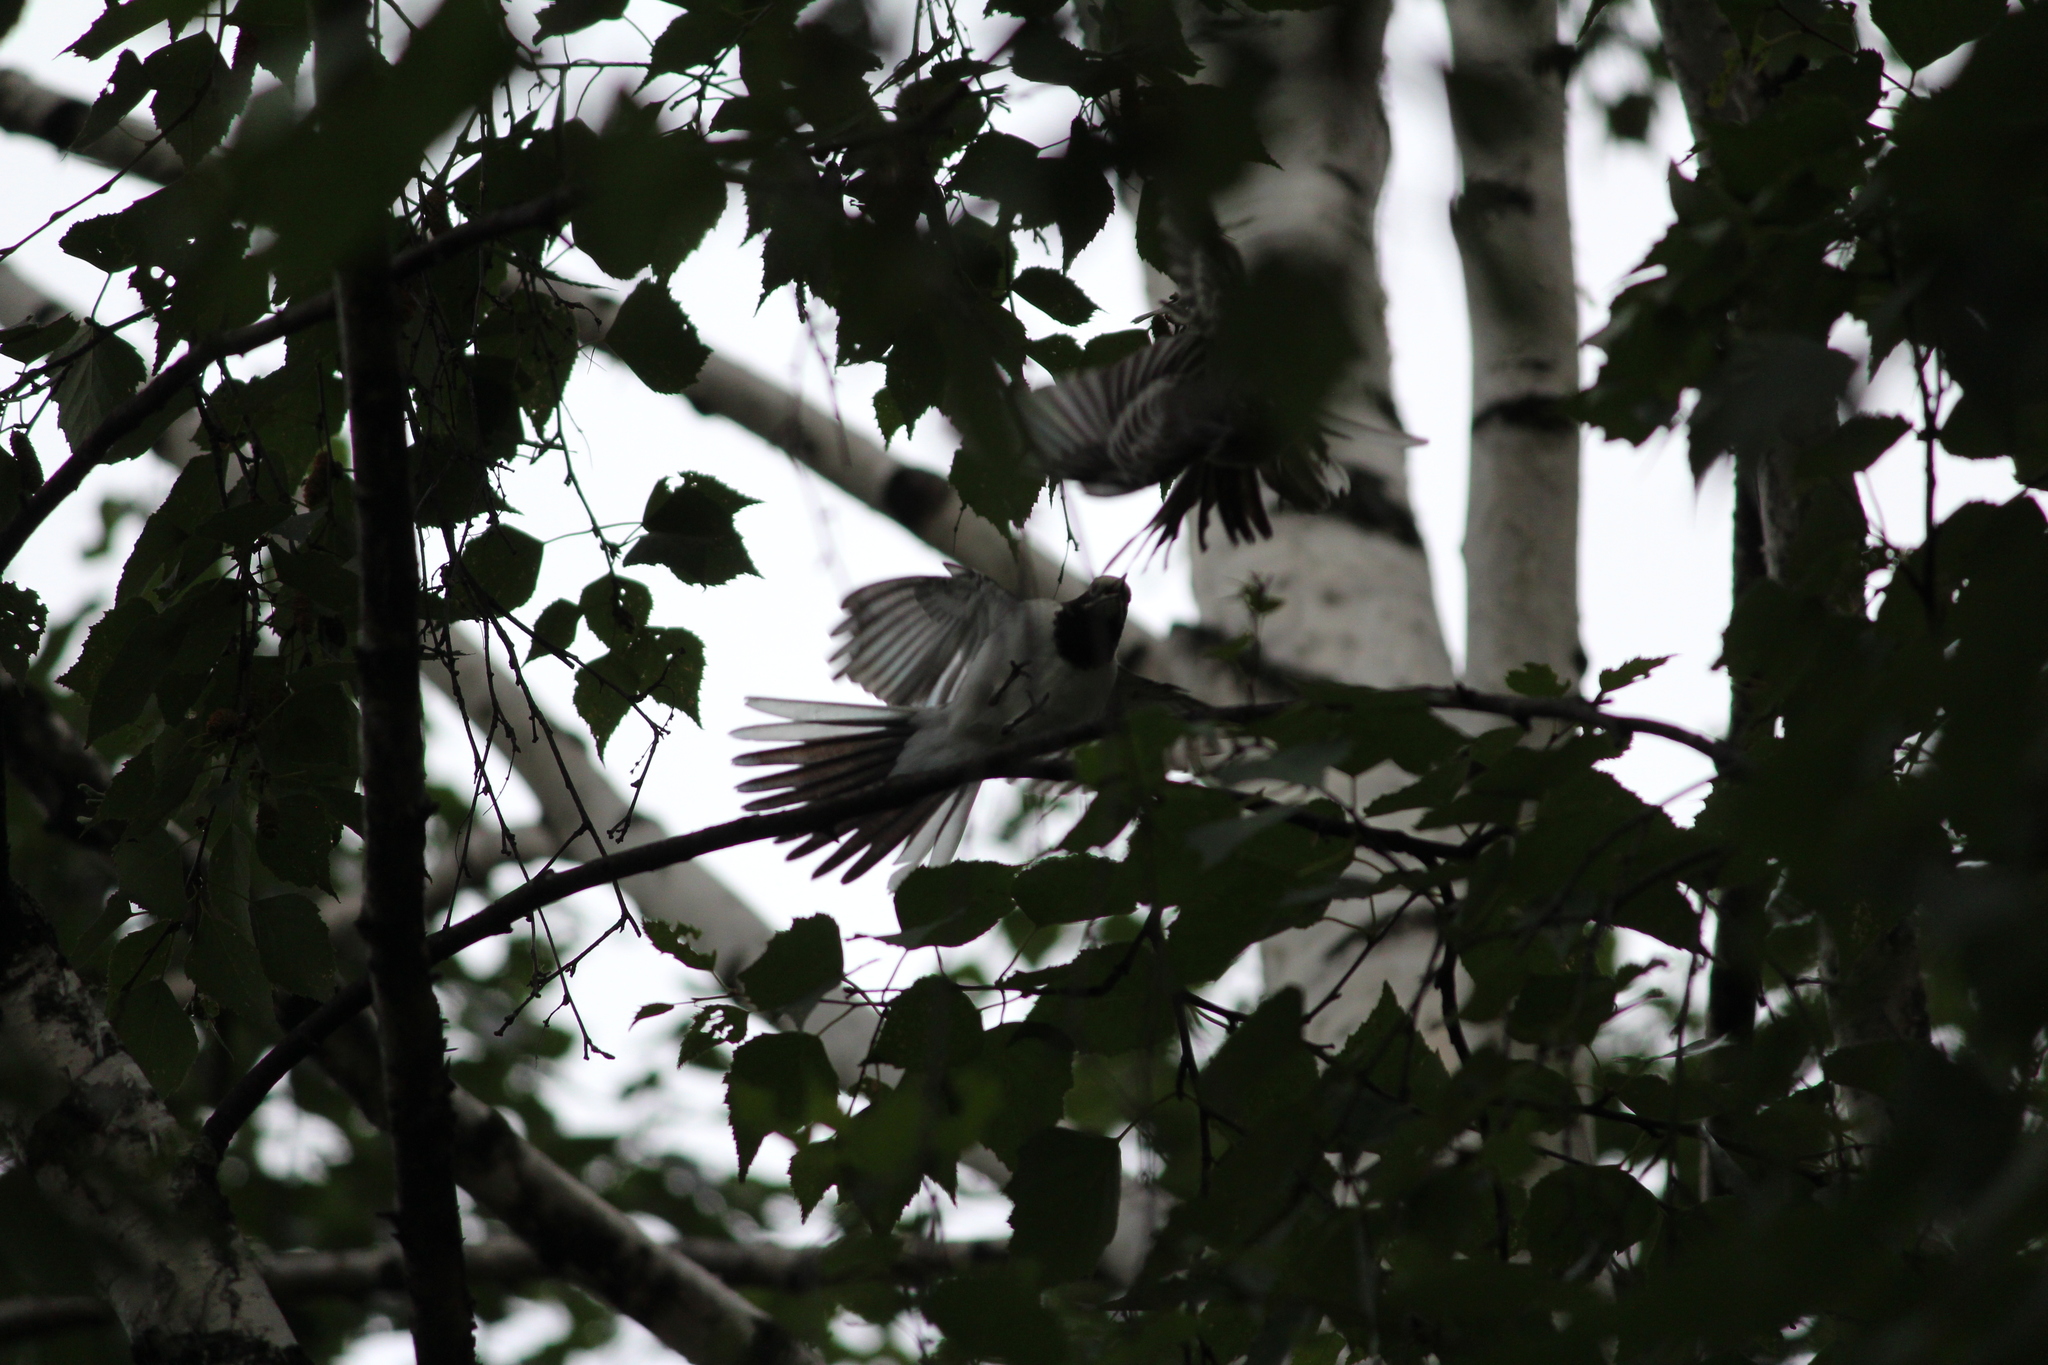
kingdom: Animalia
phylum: Chordata
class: Aves
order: Passeriformes
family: Motacillidae
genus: Motacilla
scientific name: Motacilla alba
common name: White wagtail
